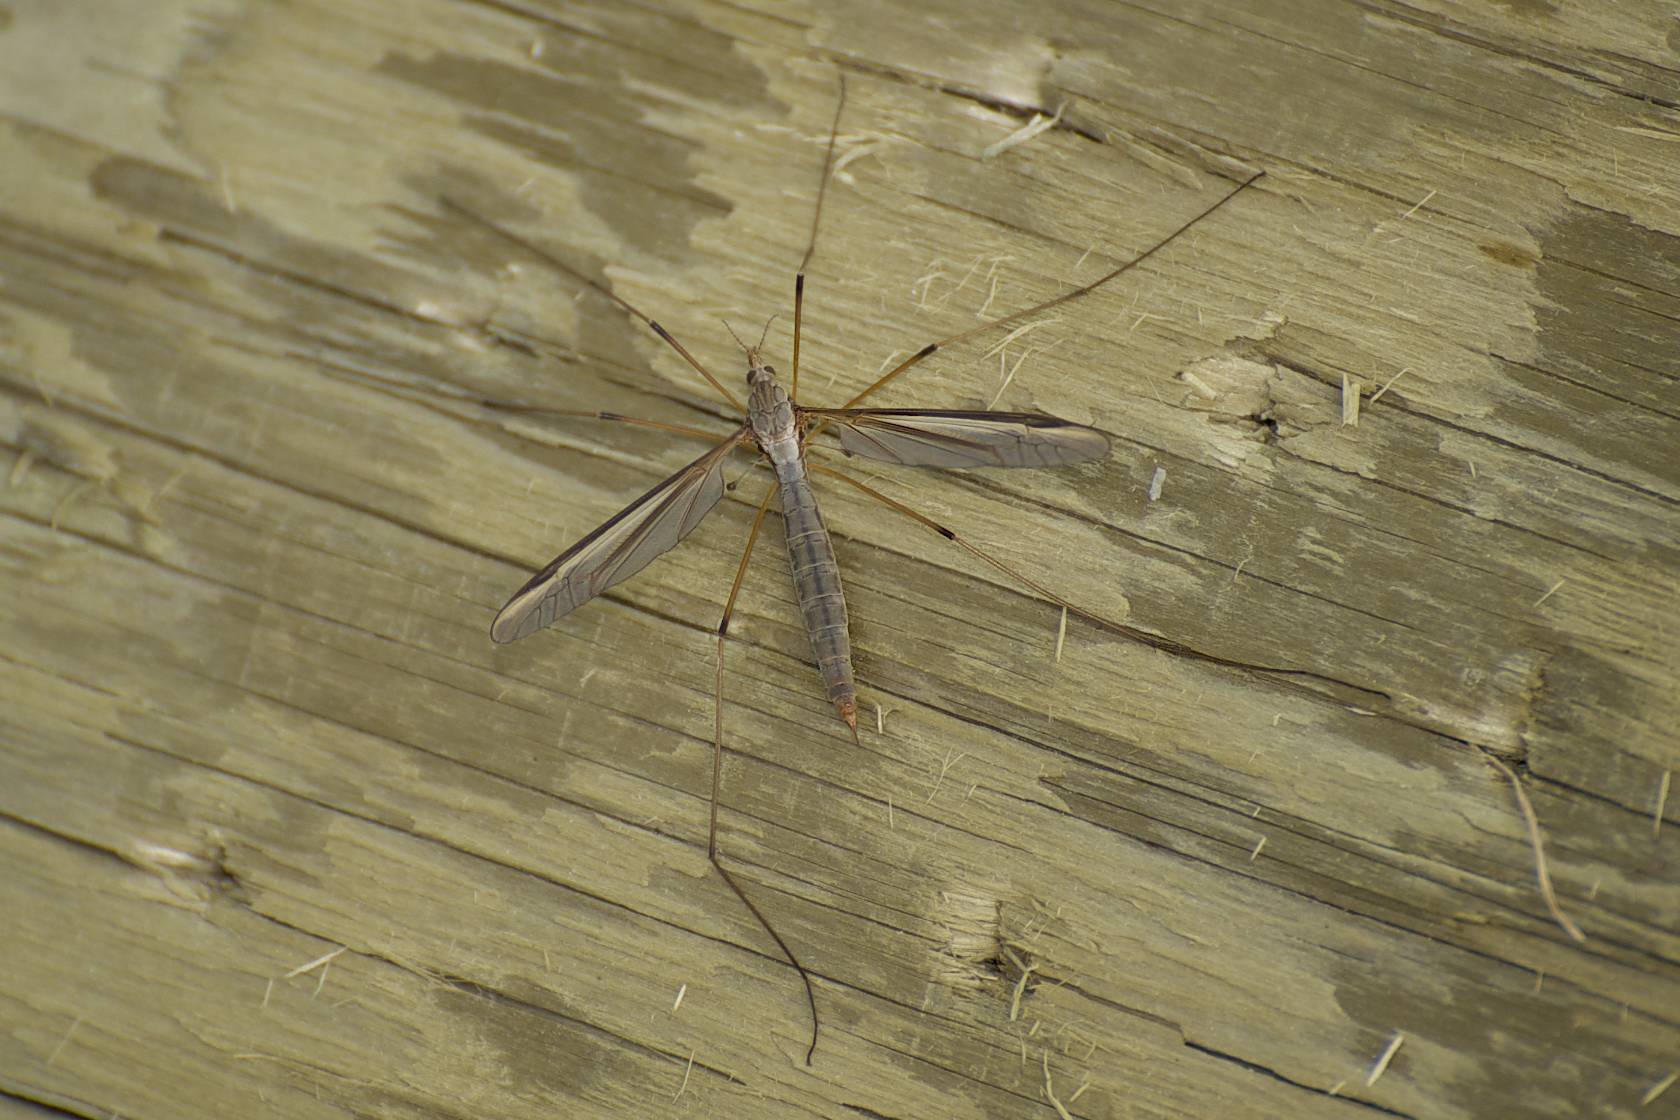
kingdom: Animalia
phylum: Arthropoda
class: Insecta
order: Diptera
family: Tipulidae
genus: Tipula
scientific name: Tipula oleracea
